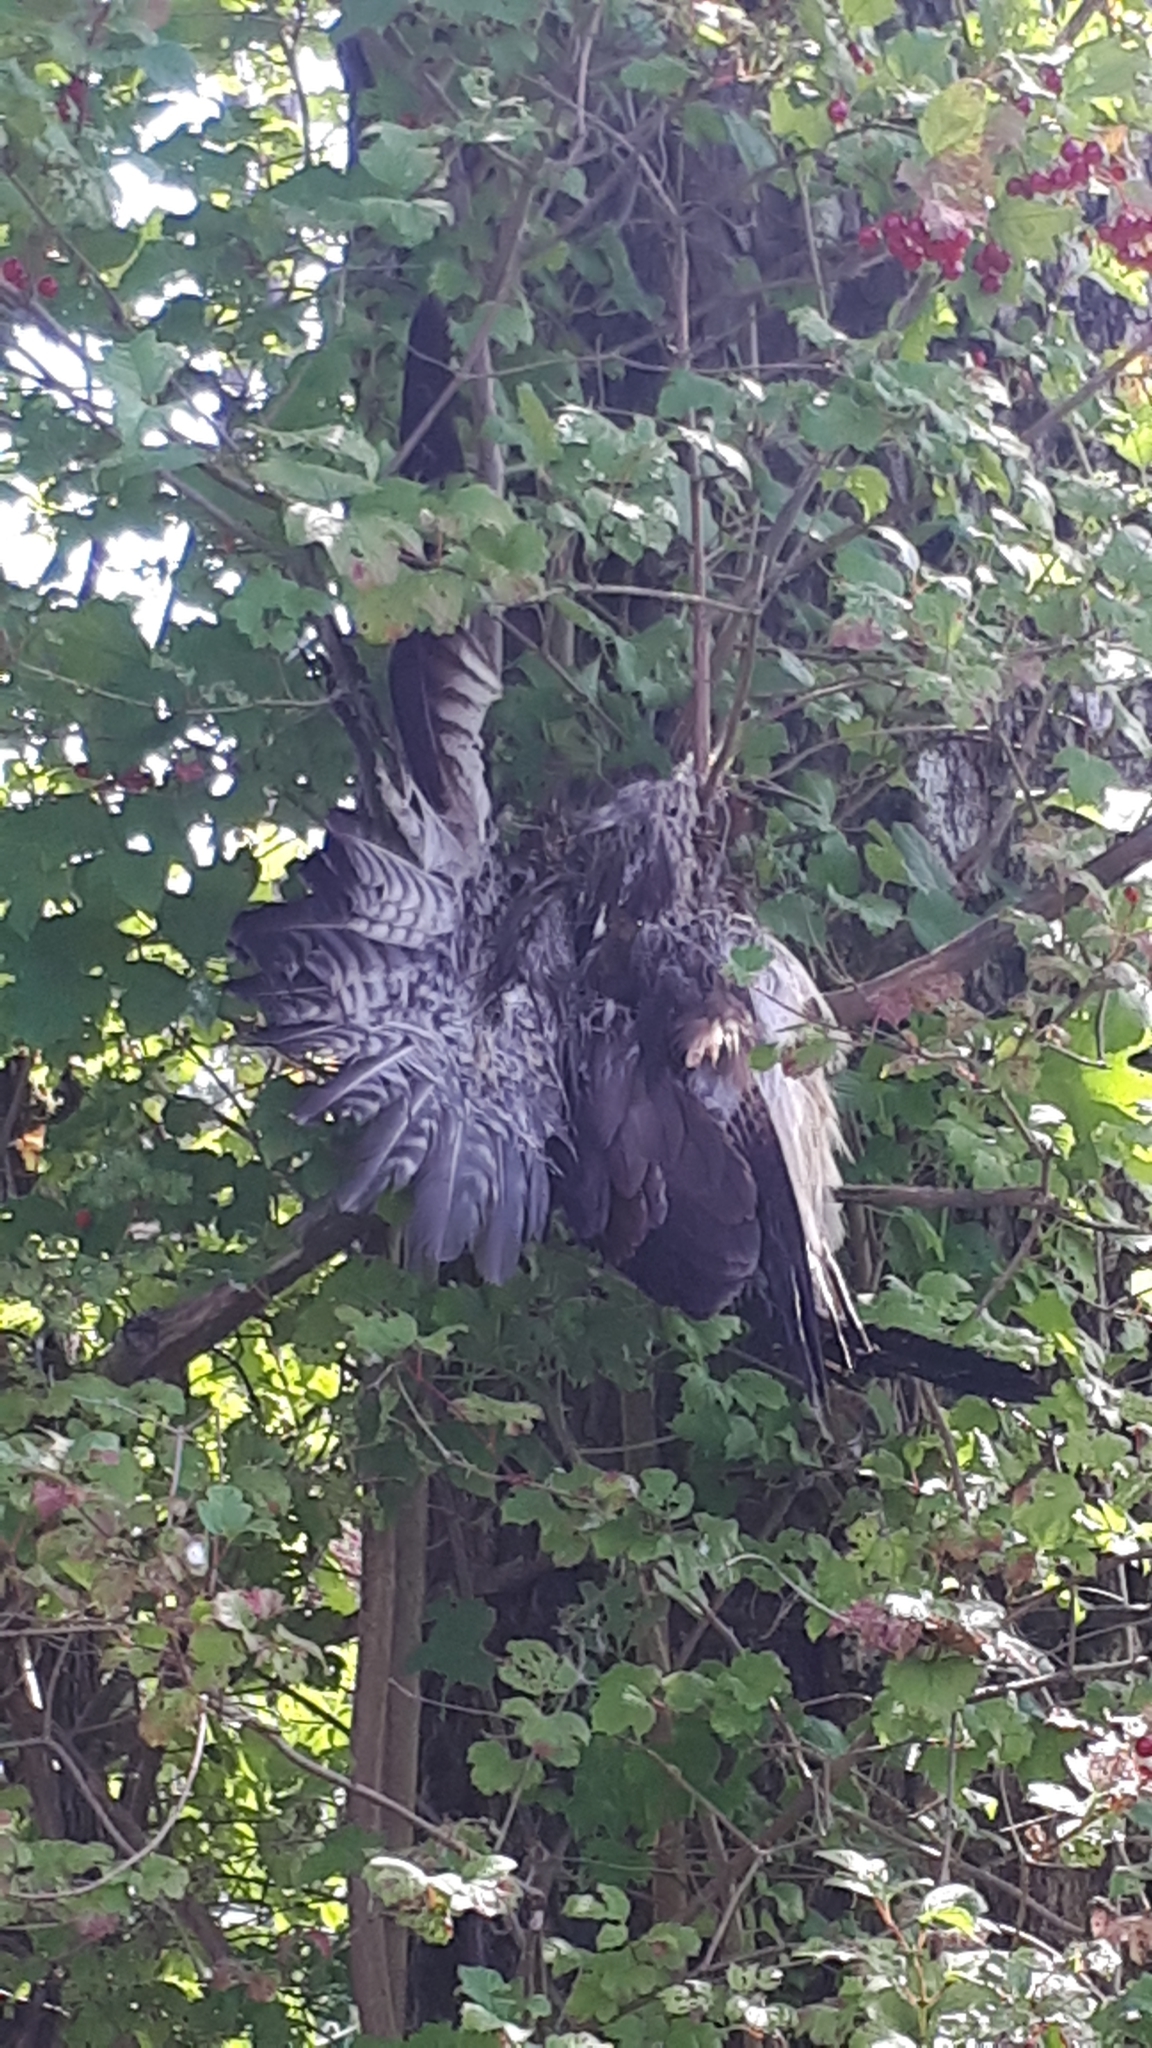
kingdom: Animalia
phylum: Chordata
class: Aves
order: Accipitriformes
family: Accipitridae
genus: Buteo
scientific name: Buteo buteo
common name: Common buzzard
